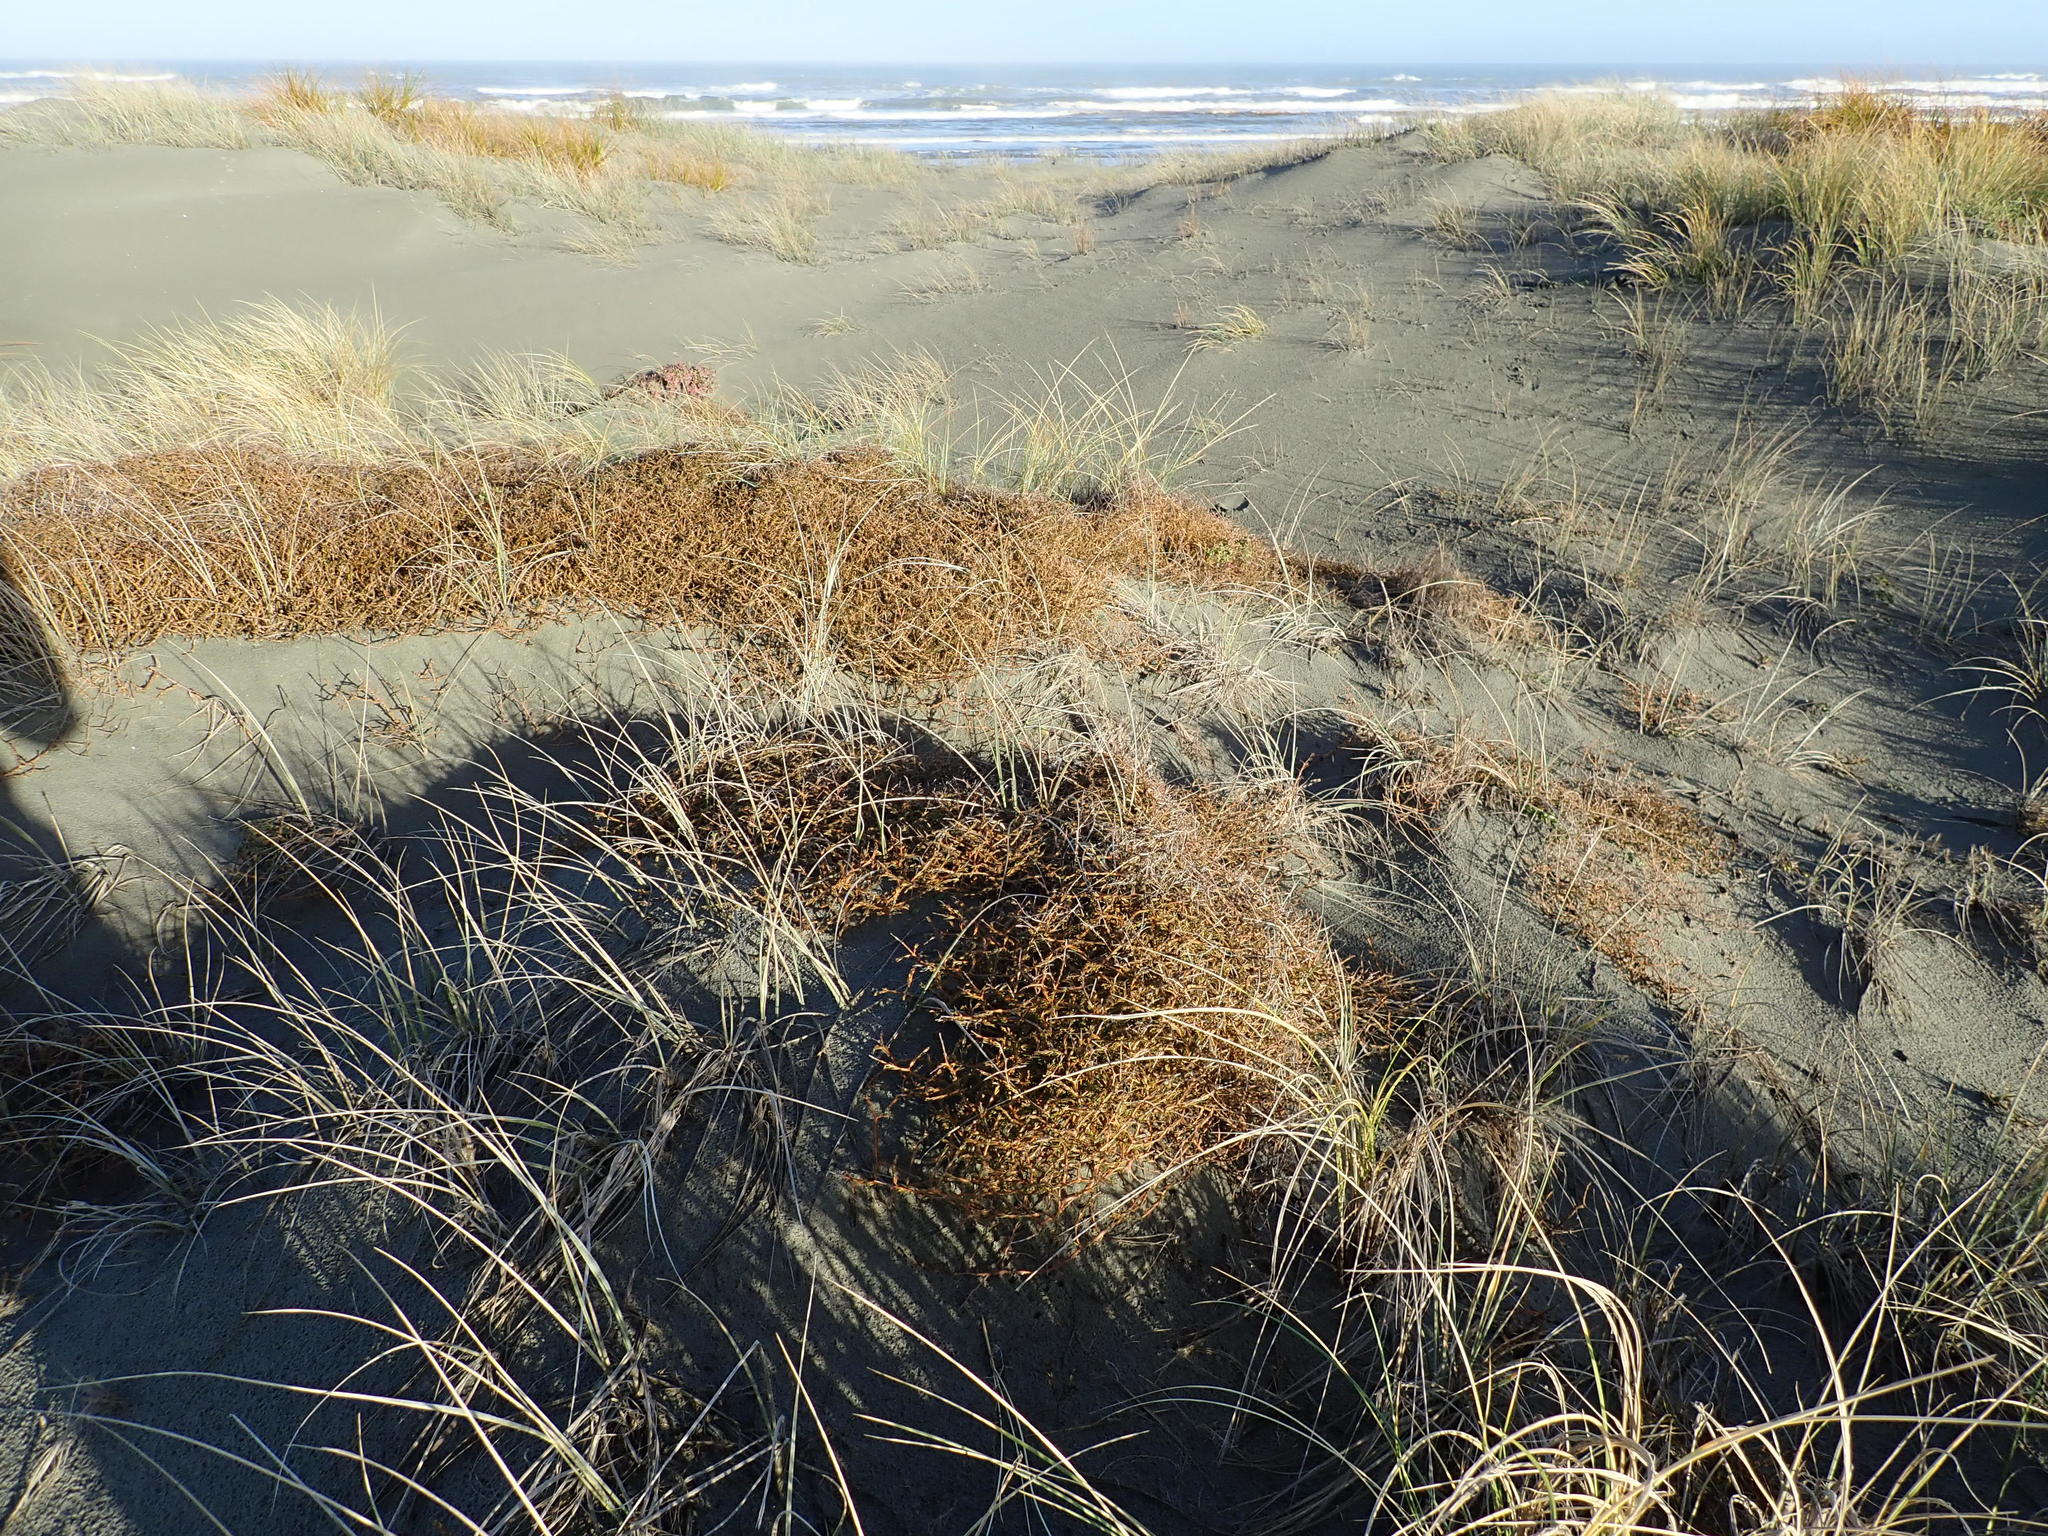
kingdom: Plantae
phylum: Tracheophyta
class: Magnoliopsida
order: Gentianales
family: Rubiaceae
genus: Coprosma
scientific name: Coprosma acerosa
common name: Sand coprosma
